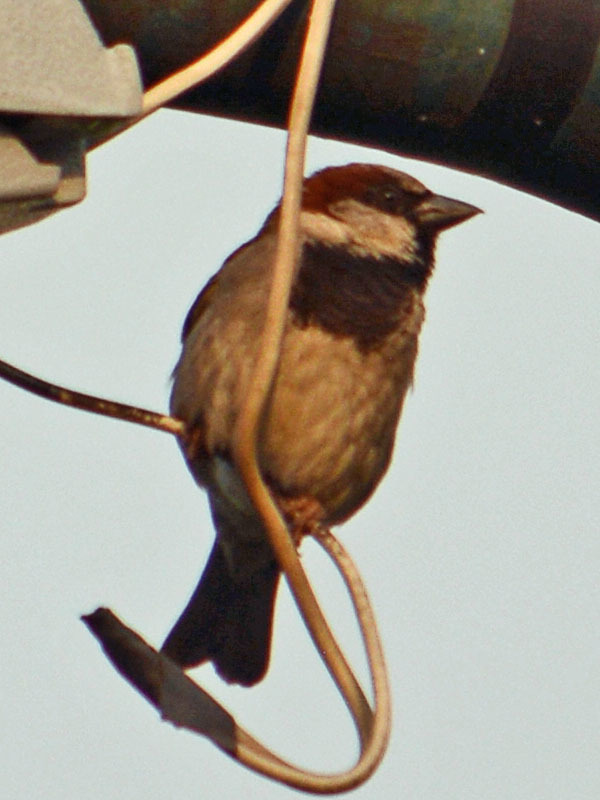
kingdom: Animalia
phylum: Chordata
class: Aves
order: Passeriformes
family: Passeridae
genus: Passer
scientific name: Passer domesticus
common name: House sparrow
